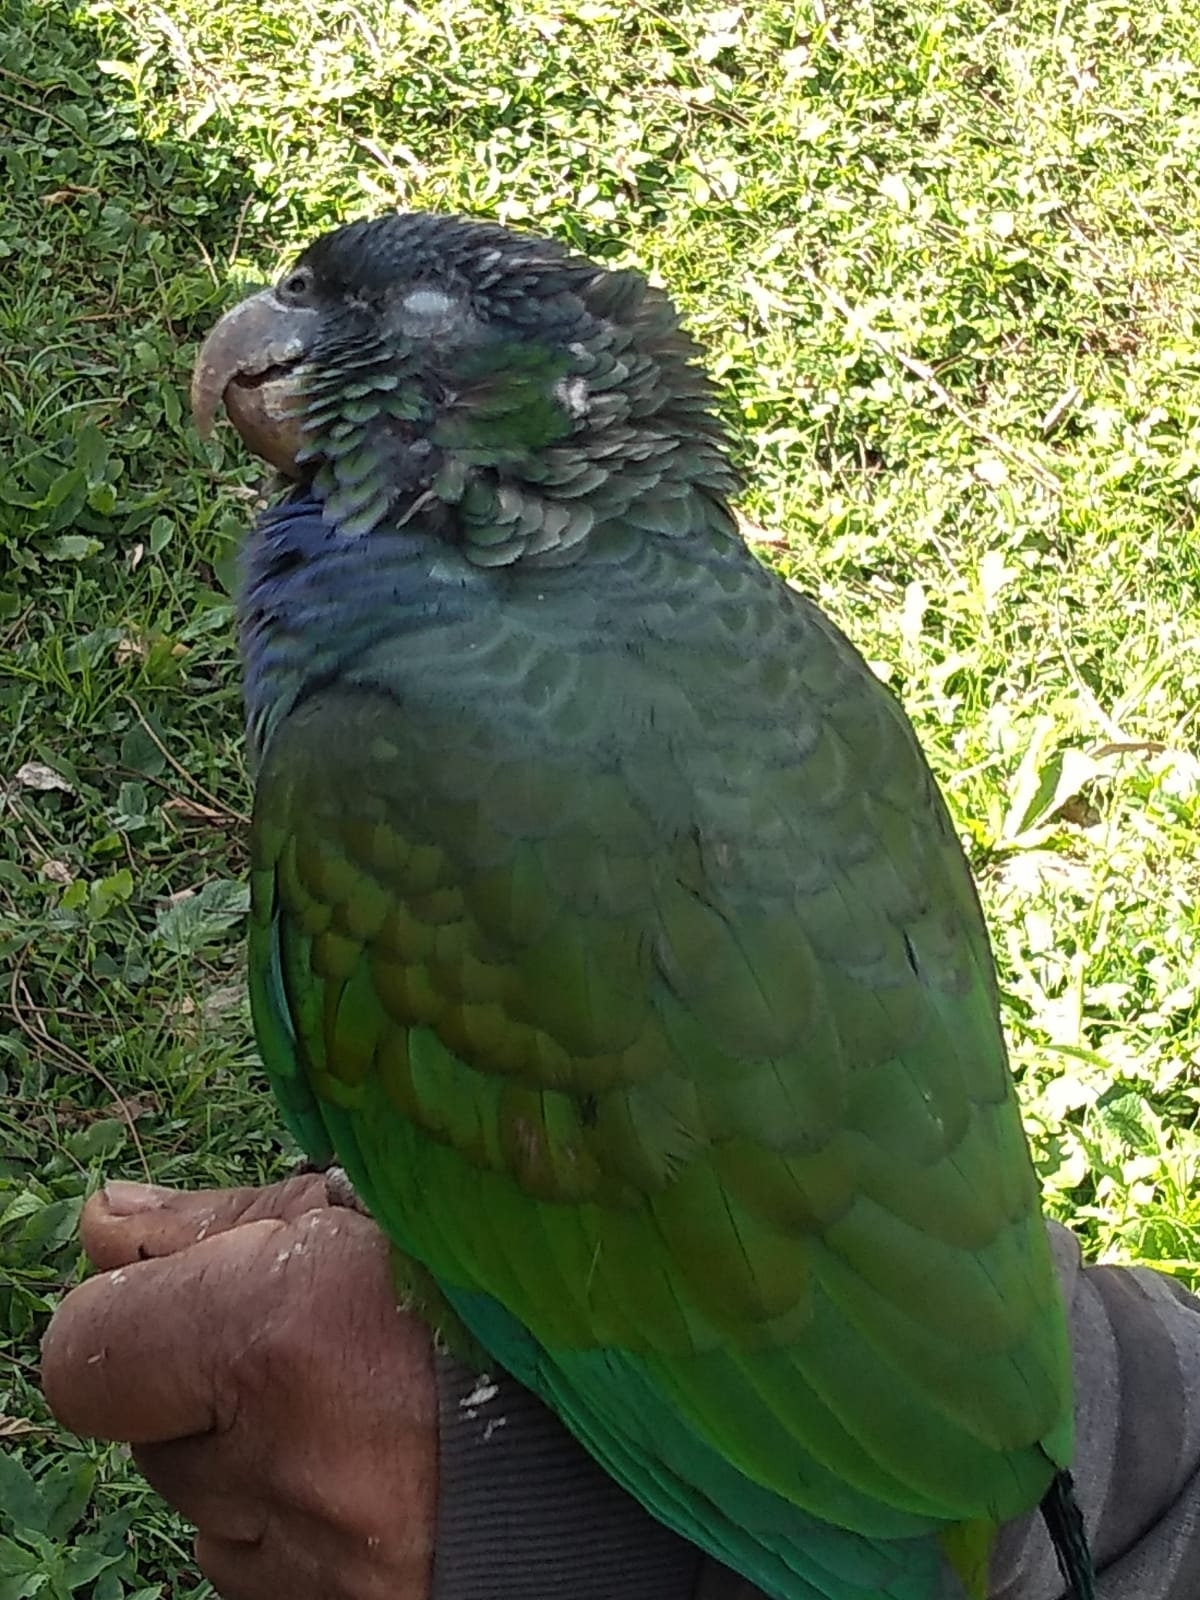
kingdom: Animalia
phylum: Chordata
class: Aves
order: Psittaciformes
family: Psittacidae
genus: Pionus
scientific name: Pionus maximiliani
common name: Scaly-headed parrot
